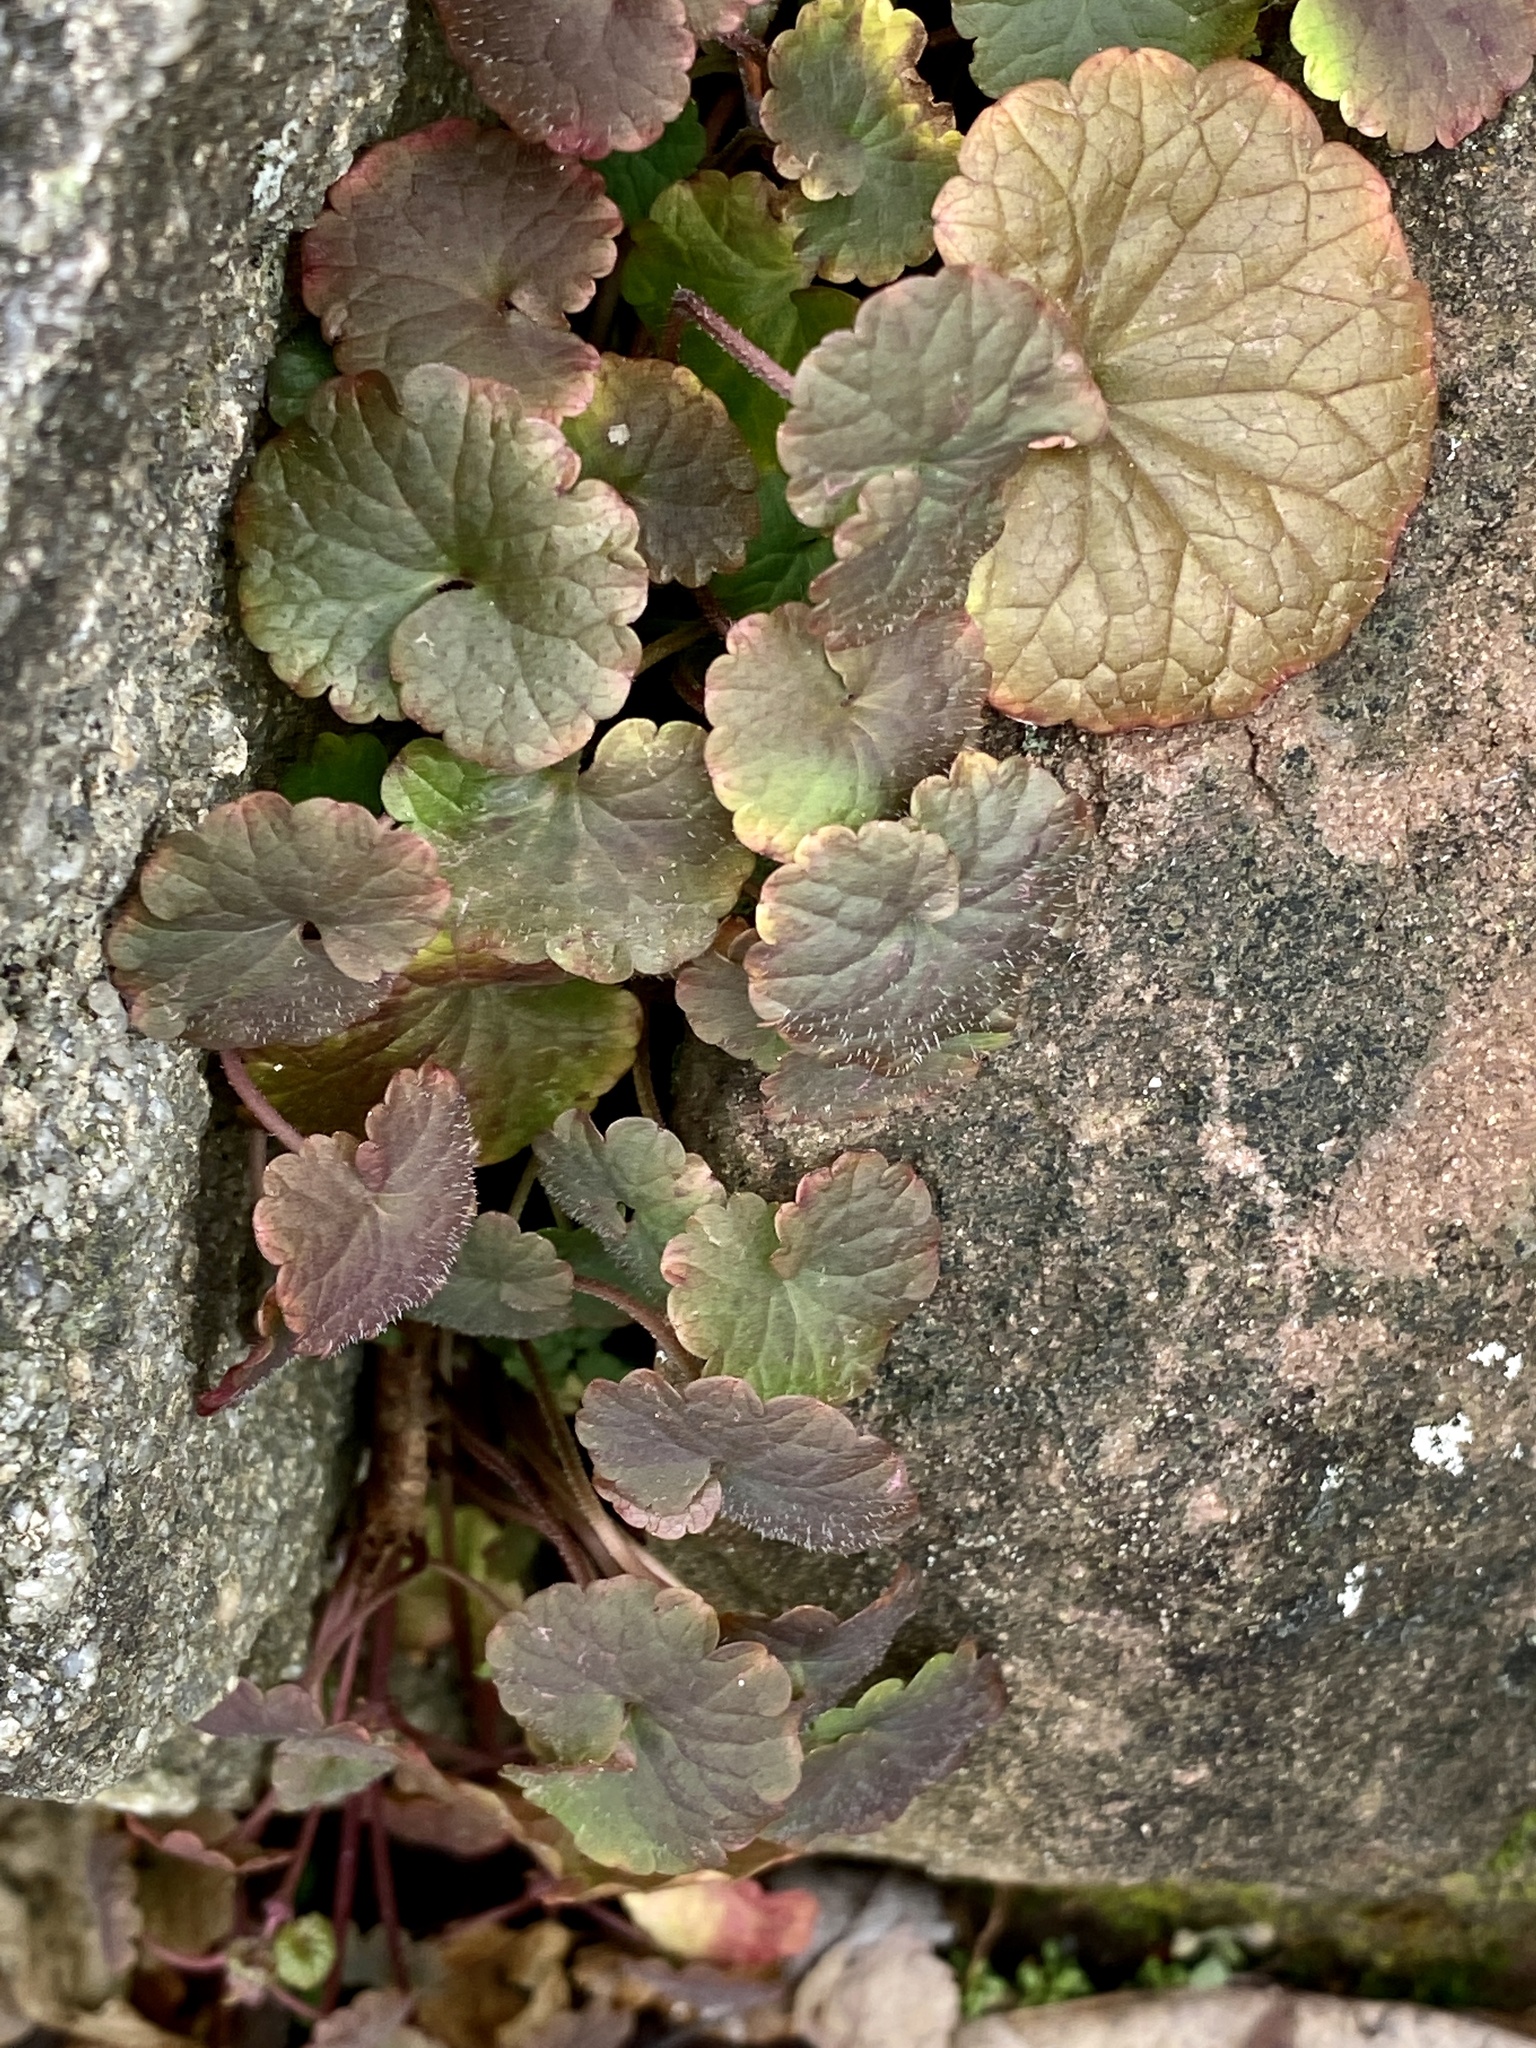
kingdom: Plantae
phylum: Tracheophyta
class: Magnoliopsida
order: Lamiales
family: Lamiaceae
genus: Glechoma
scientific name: Glechoma hederacea
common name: Ground ivy
